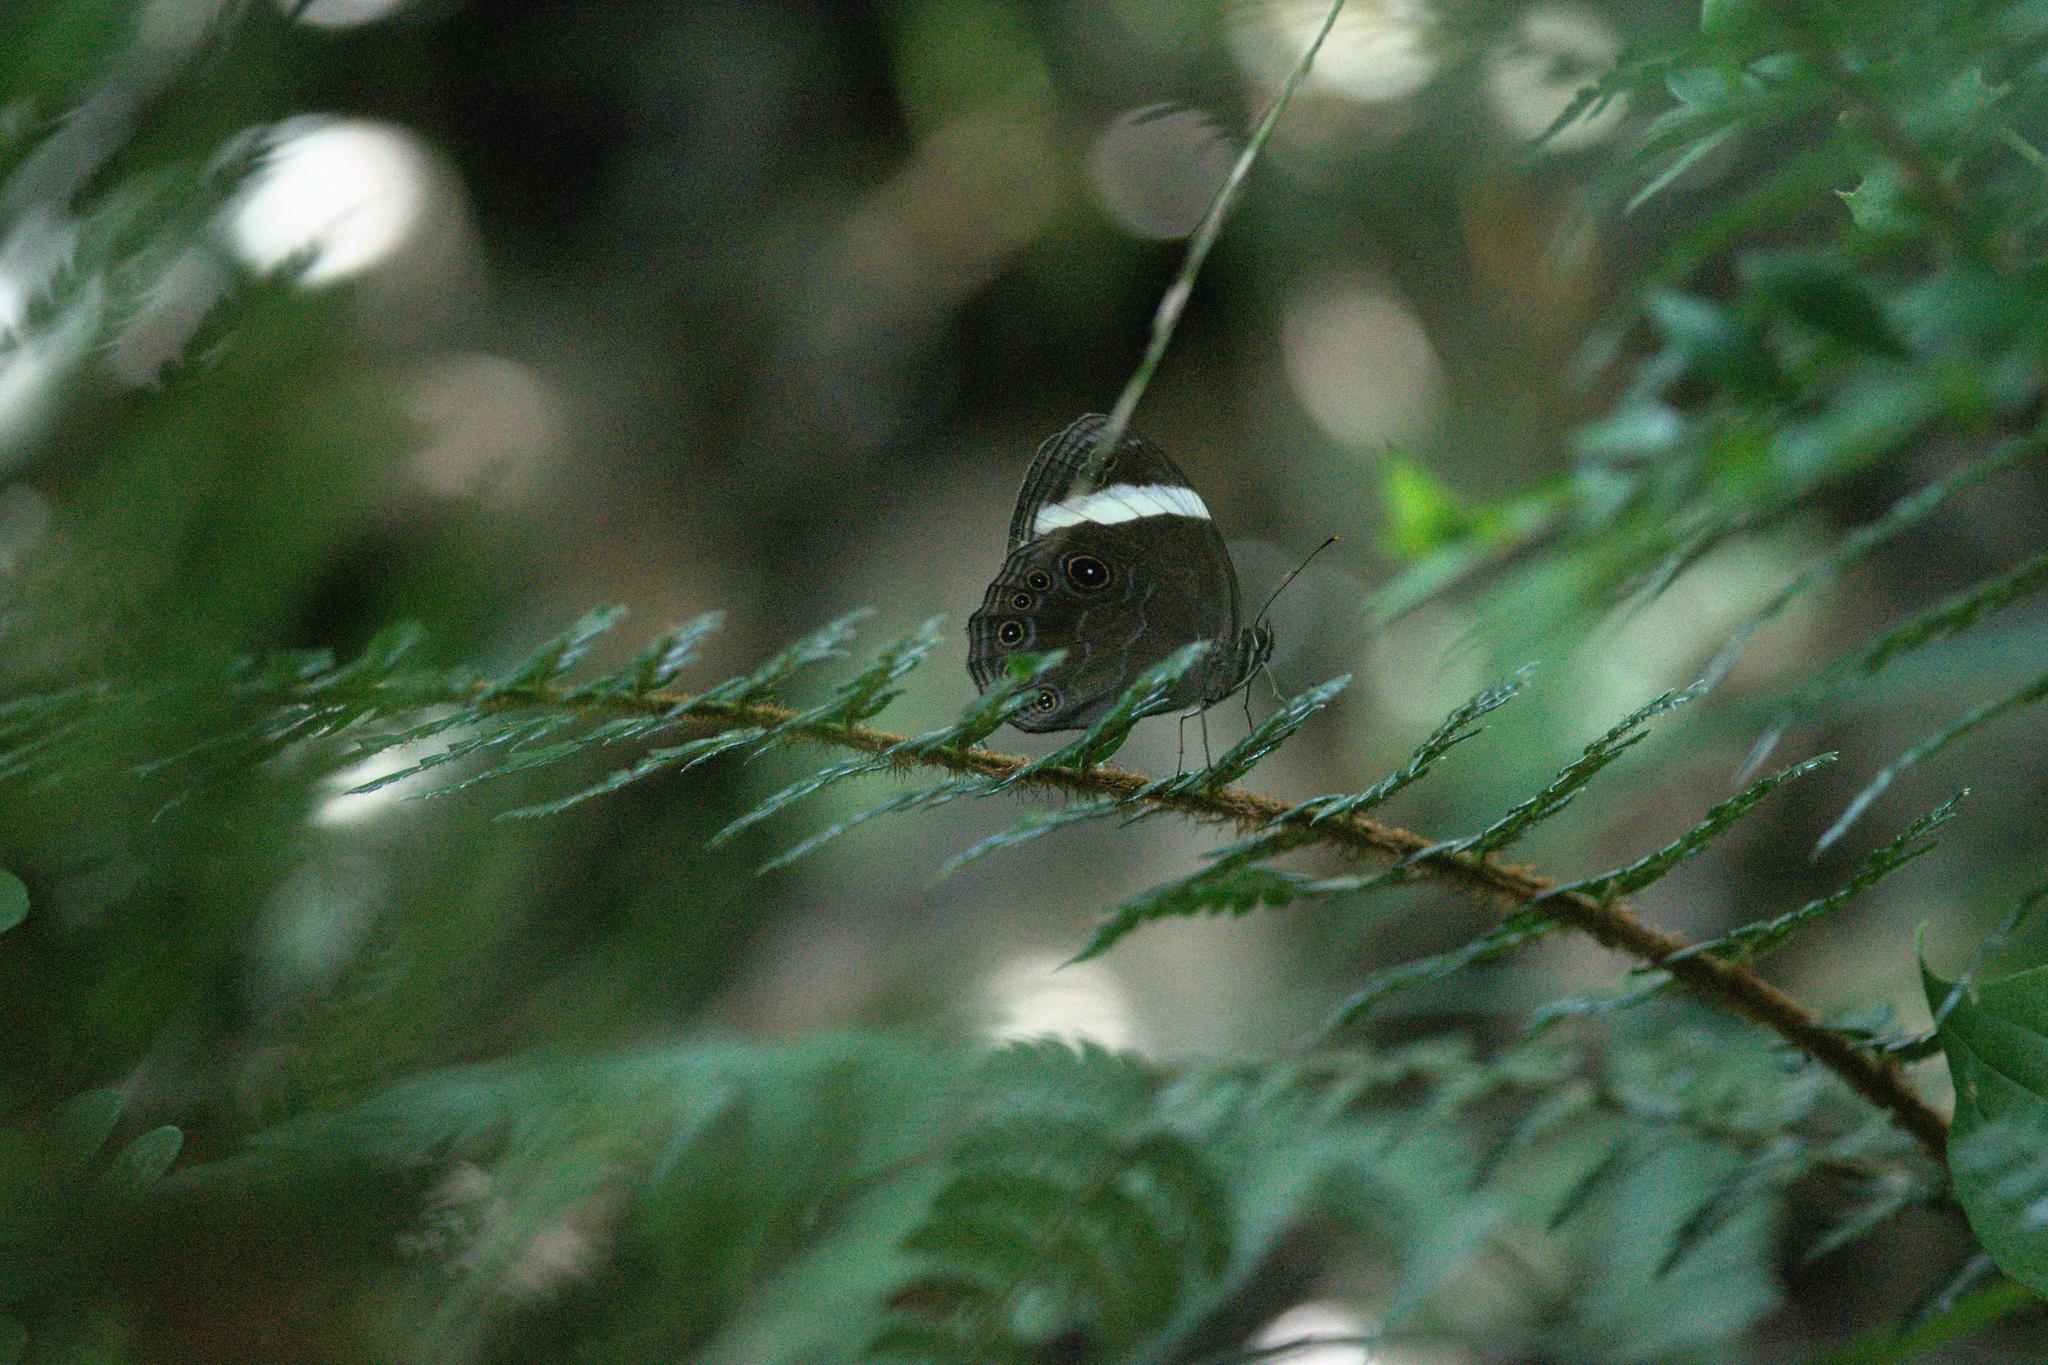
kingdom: Animalia
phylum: Arthropoda
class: Insecta
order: Lepidoptera
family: Nymphalidae
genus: Lethe
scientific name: Lethe verma
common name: Straight-banded treebrown
